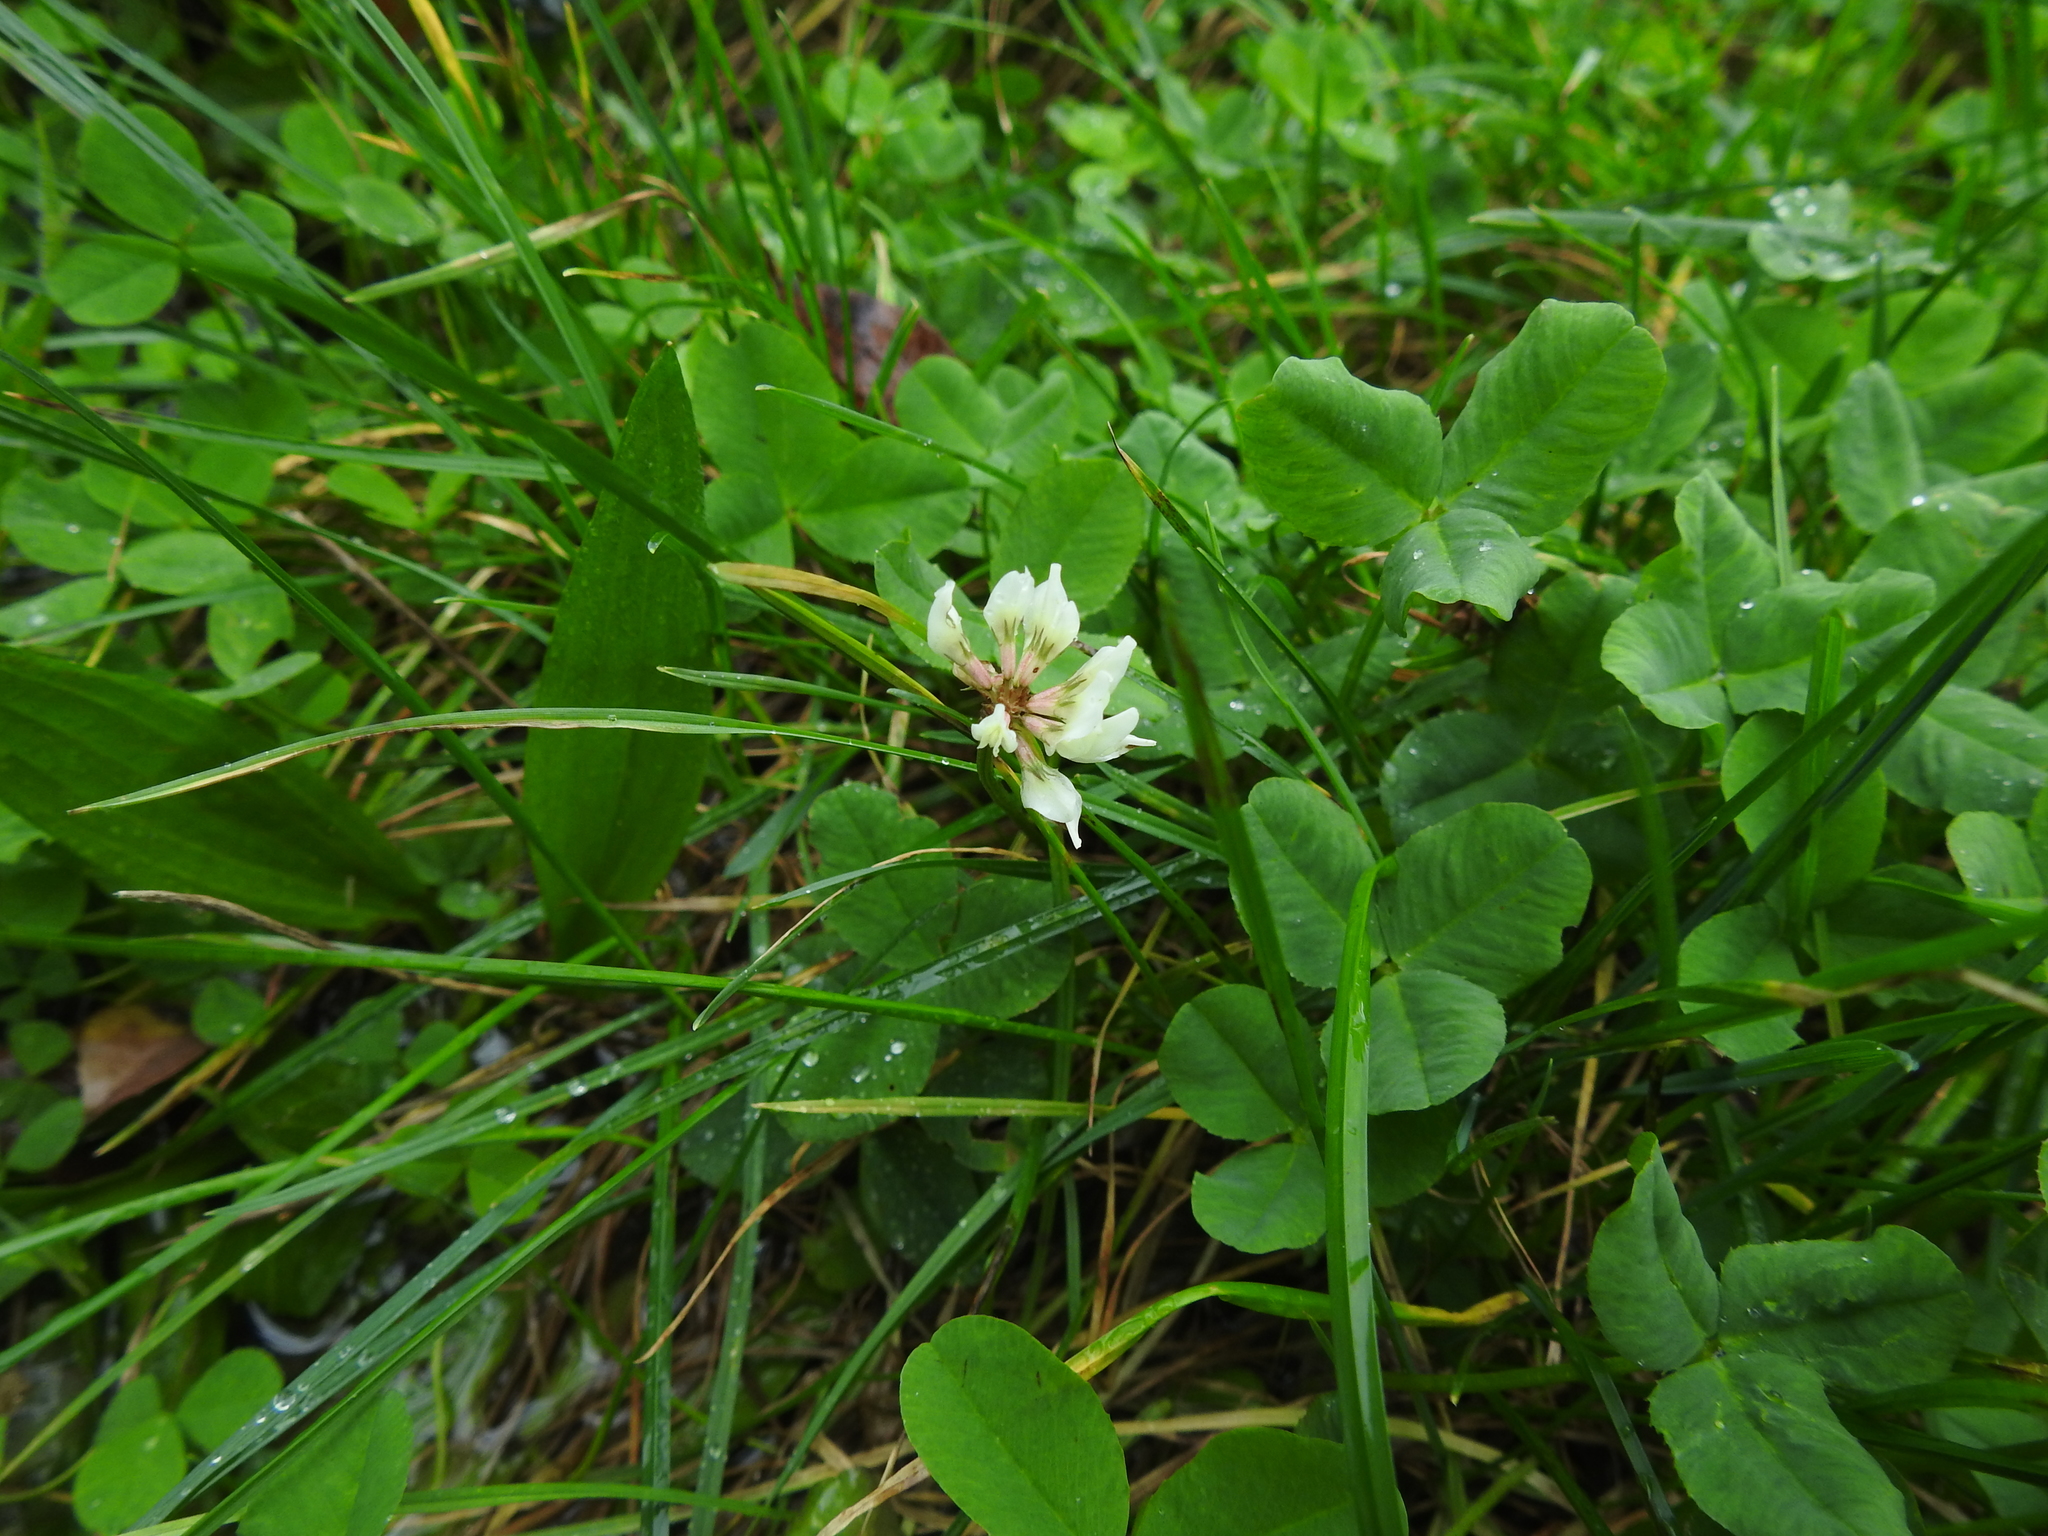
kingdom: Plantae
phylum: Tracheophyta
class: Magnoliopsida
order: Fabales
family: Fabaceae
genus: Trifolium
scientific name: Trifolium repens
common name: White clover
